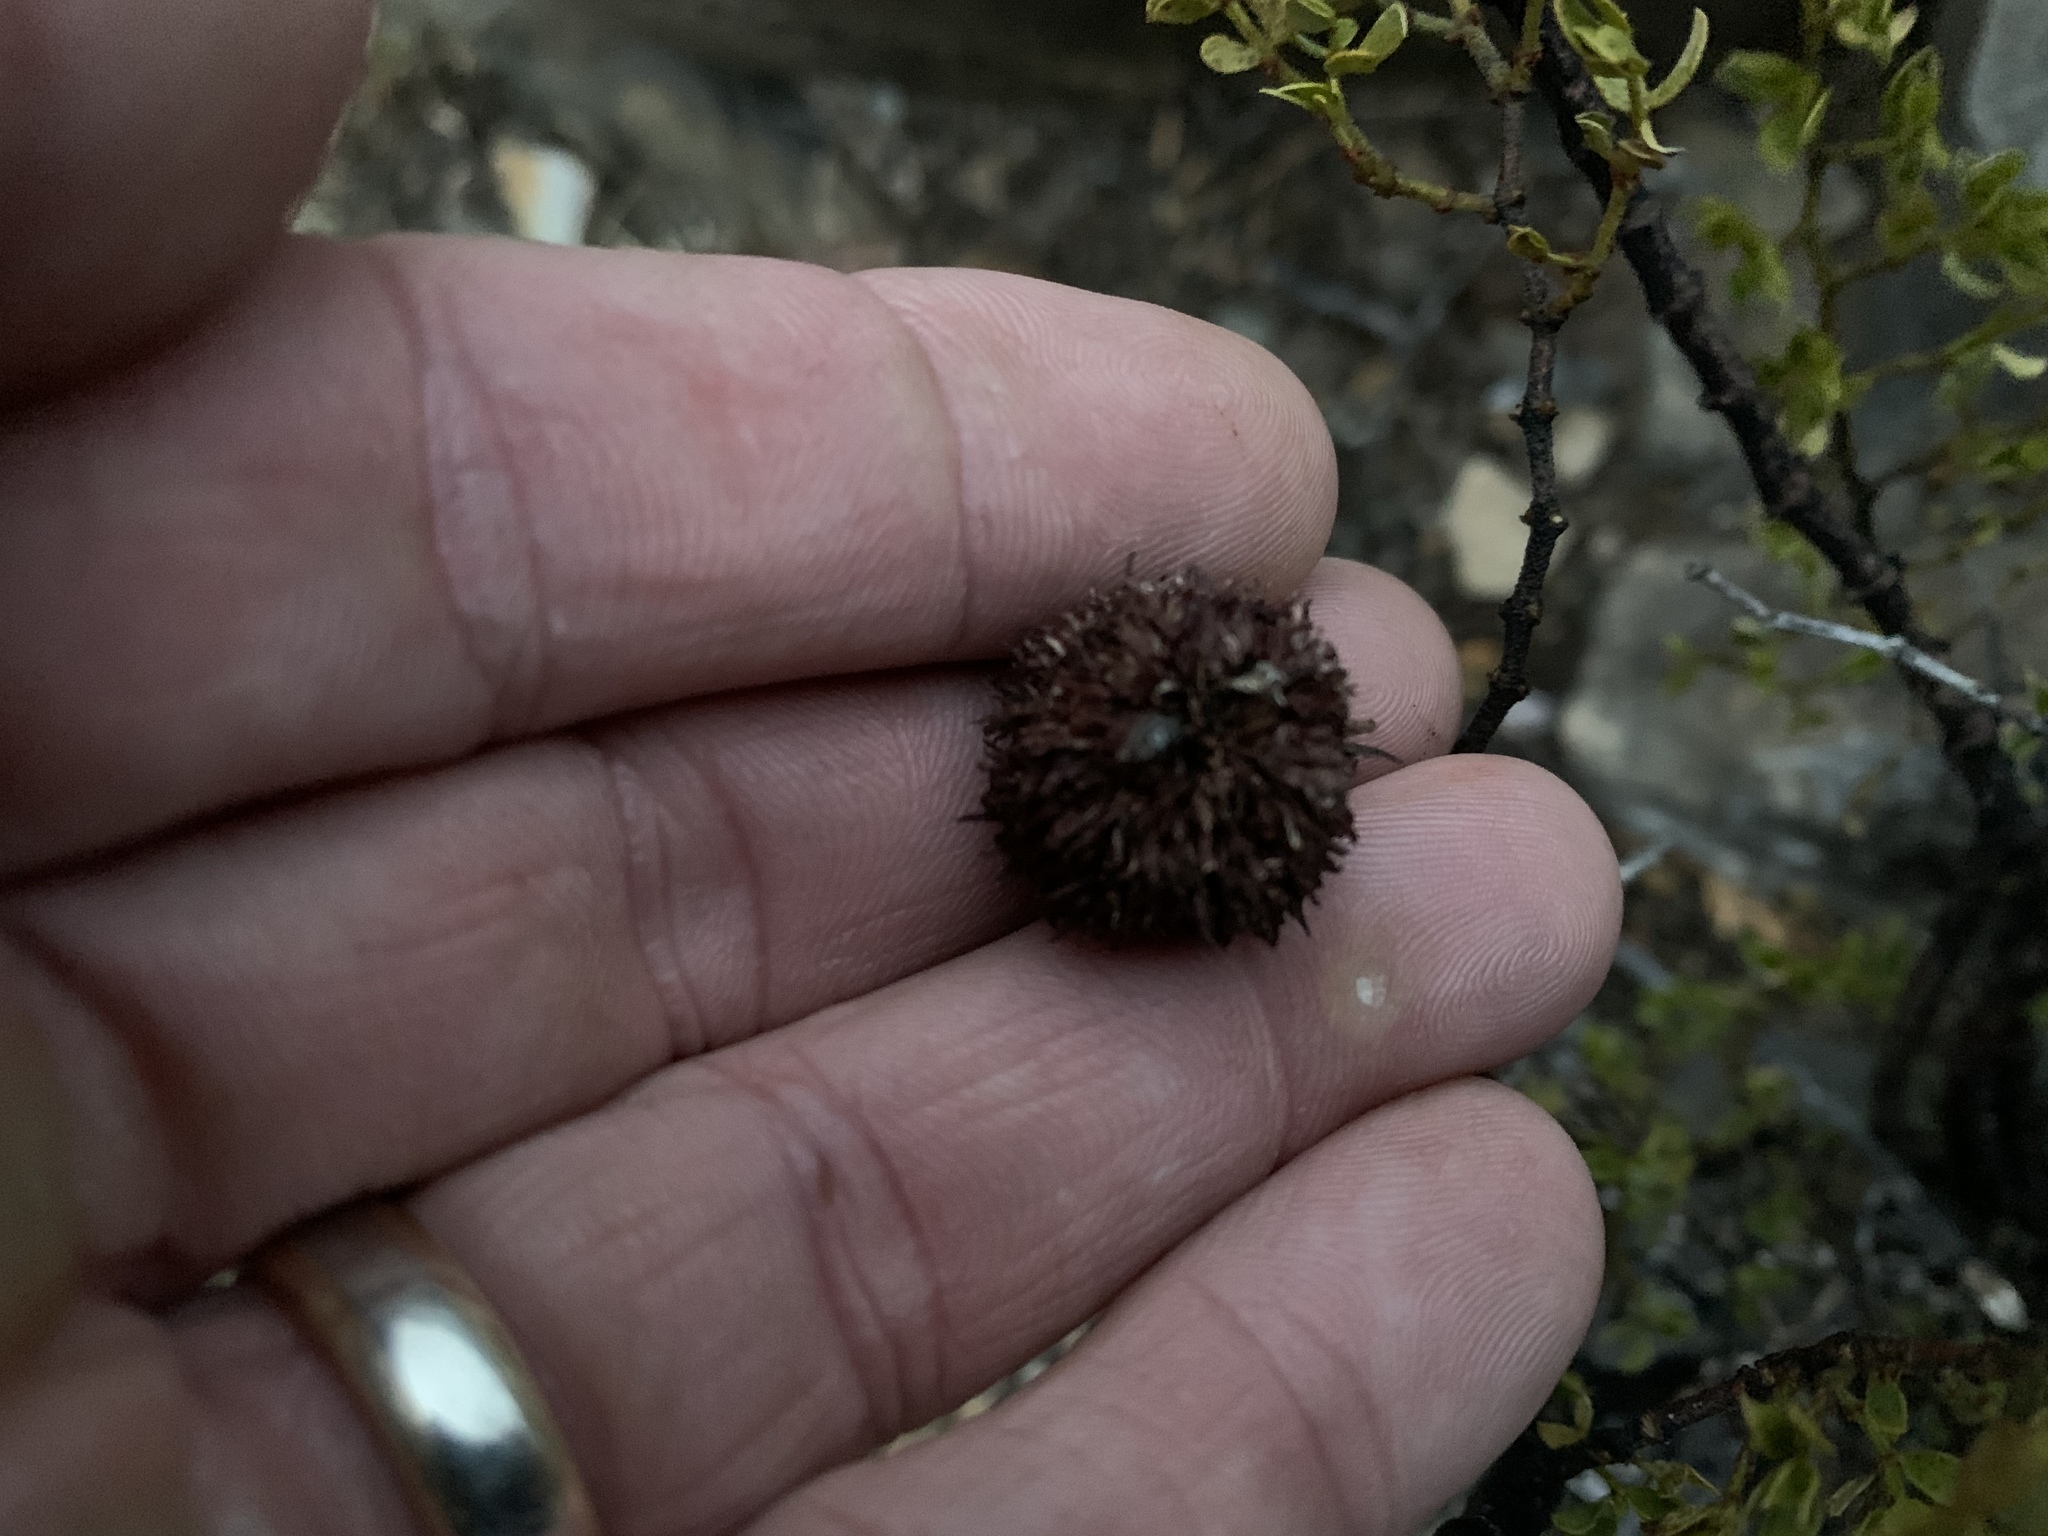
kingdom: Animalia
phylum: Arthropoda
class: Insecta
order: Diptera
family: Cecidomyiidae
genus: Asphondylia
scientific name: Asphondylia auripila
